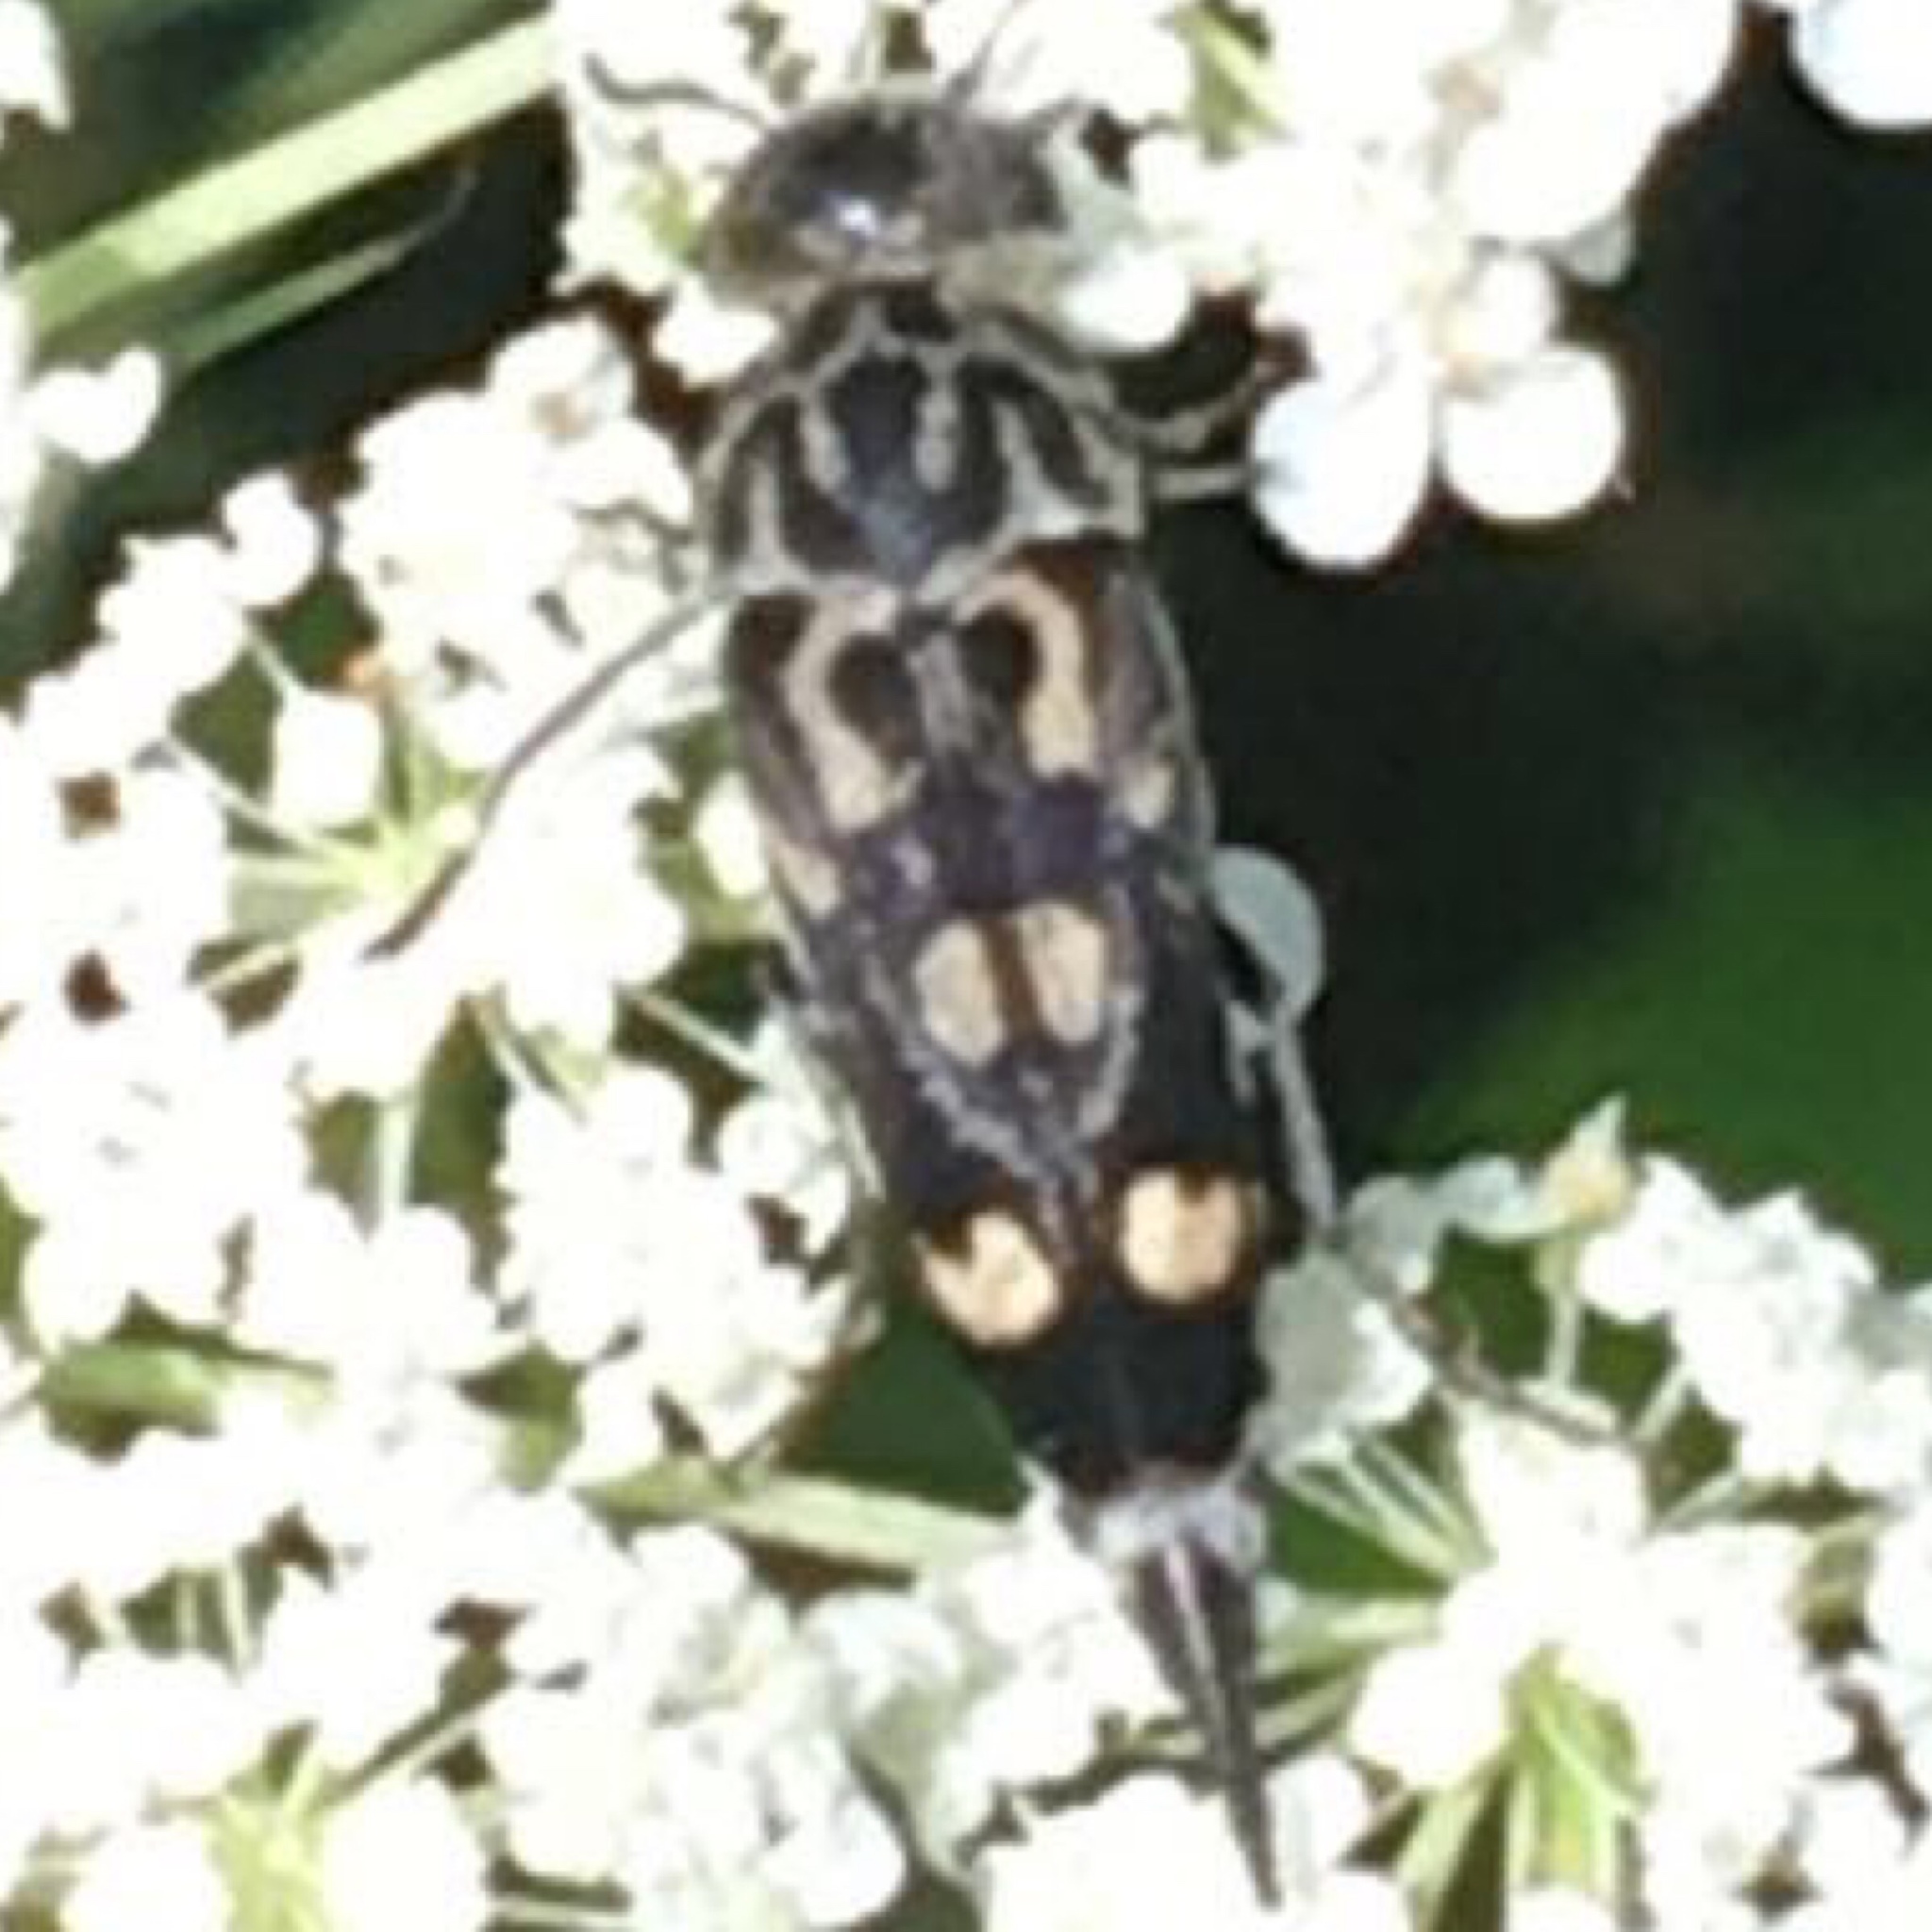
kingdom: Animalia
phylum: Arthropoda
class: Insecta
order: Coleoptera
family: Mordellidae
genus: Hoshihananomia
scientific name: Hoshihananomia octopunctata
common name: Eight-spotted tumbling flower beetle
